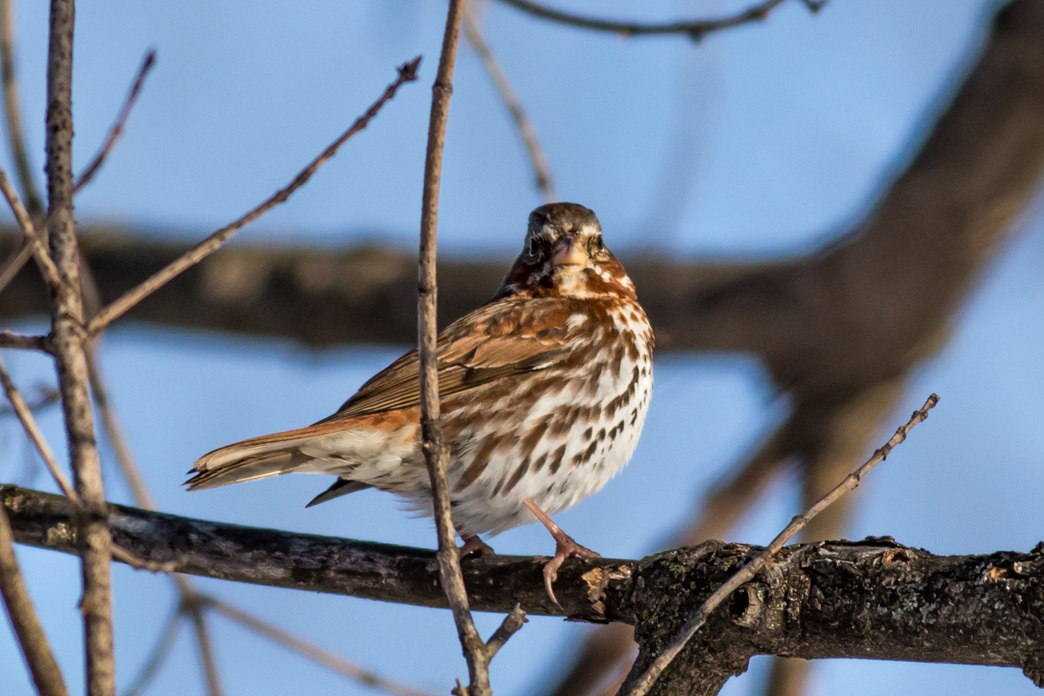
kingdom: Animalia
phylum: Chordata
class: Aves
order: Passeriformes
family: Passerellidae
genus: Passerella
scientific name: Passerella iliaca
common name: Fox sparrow
